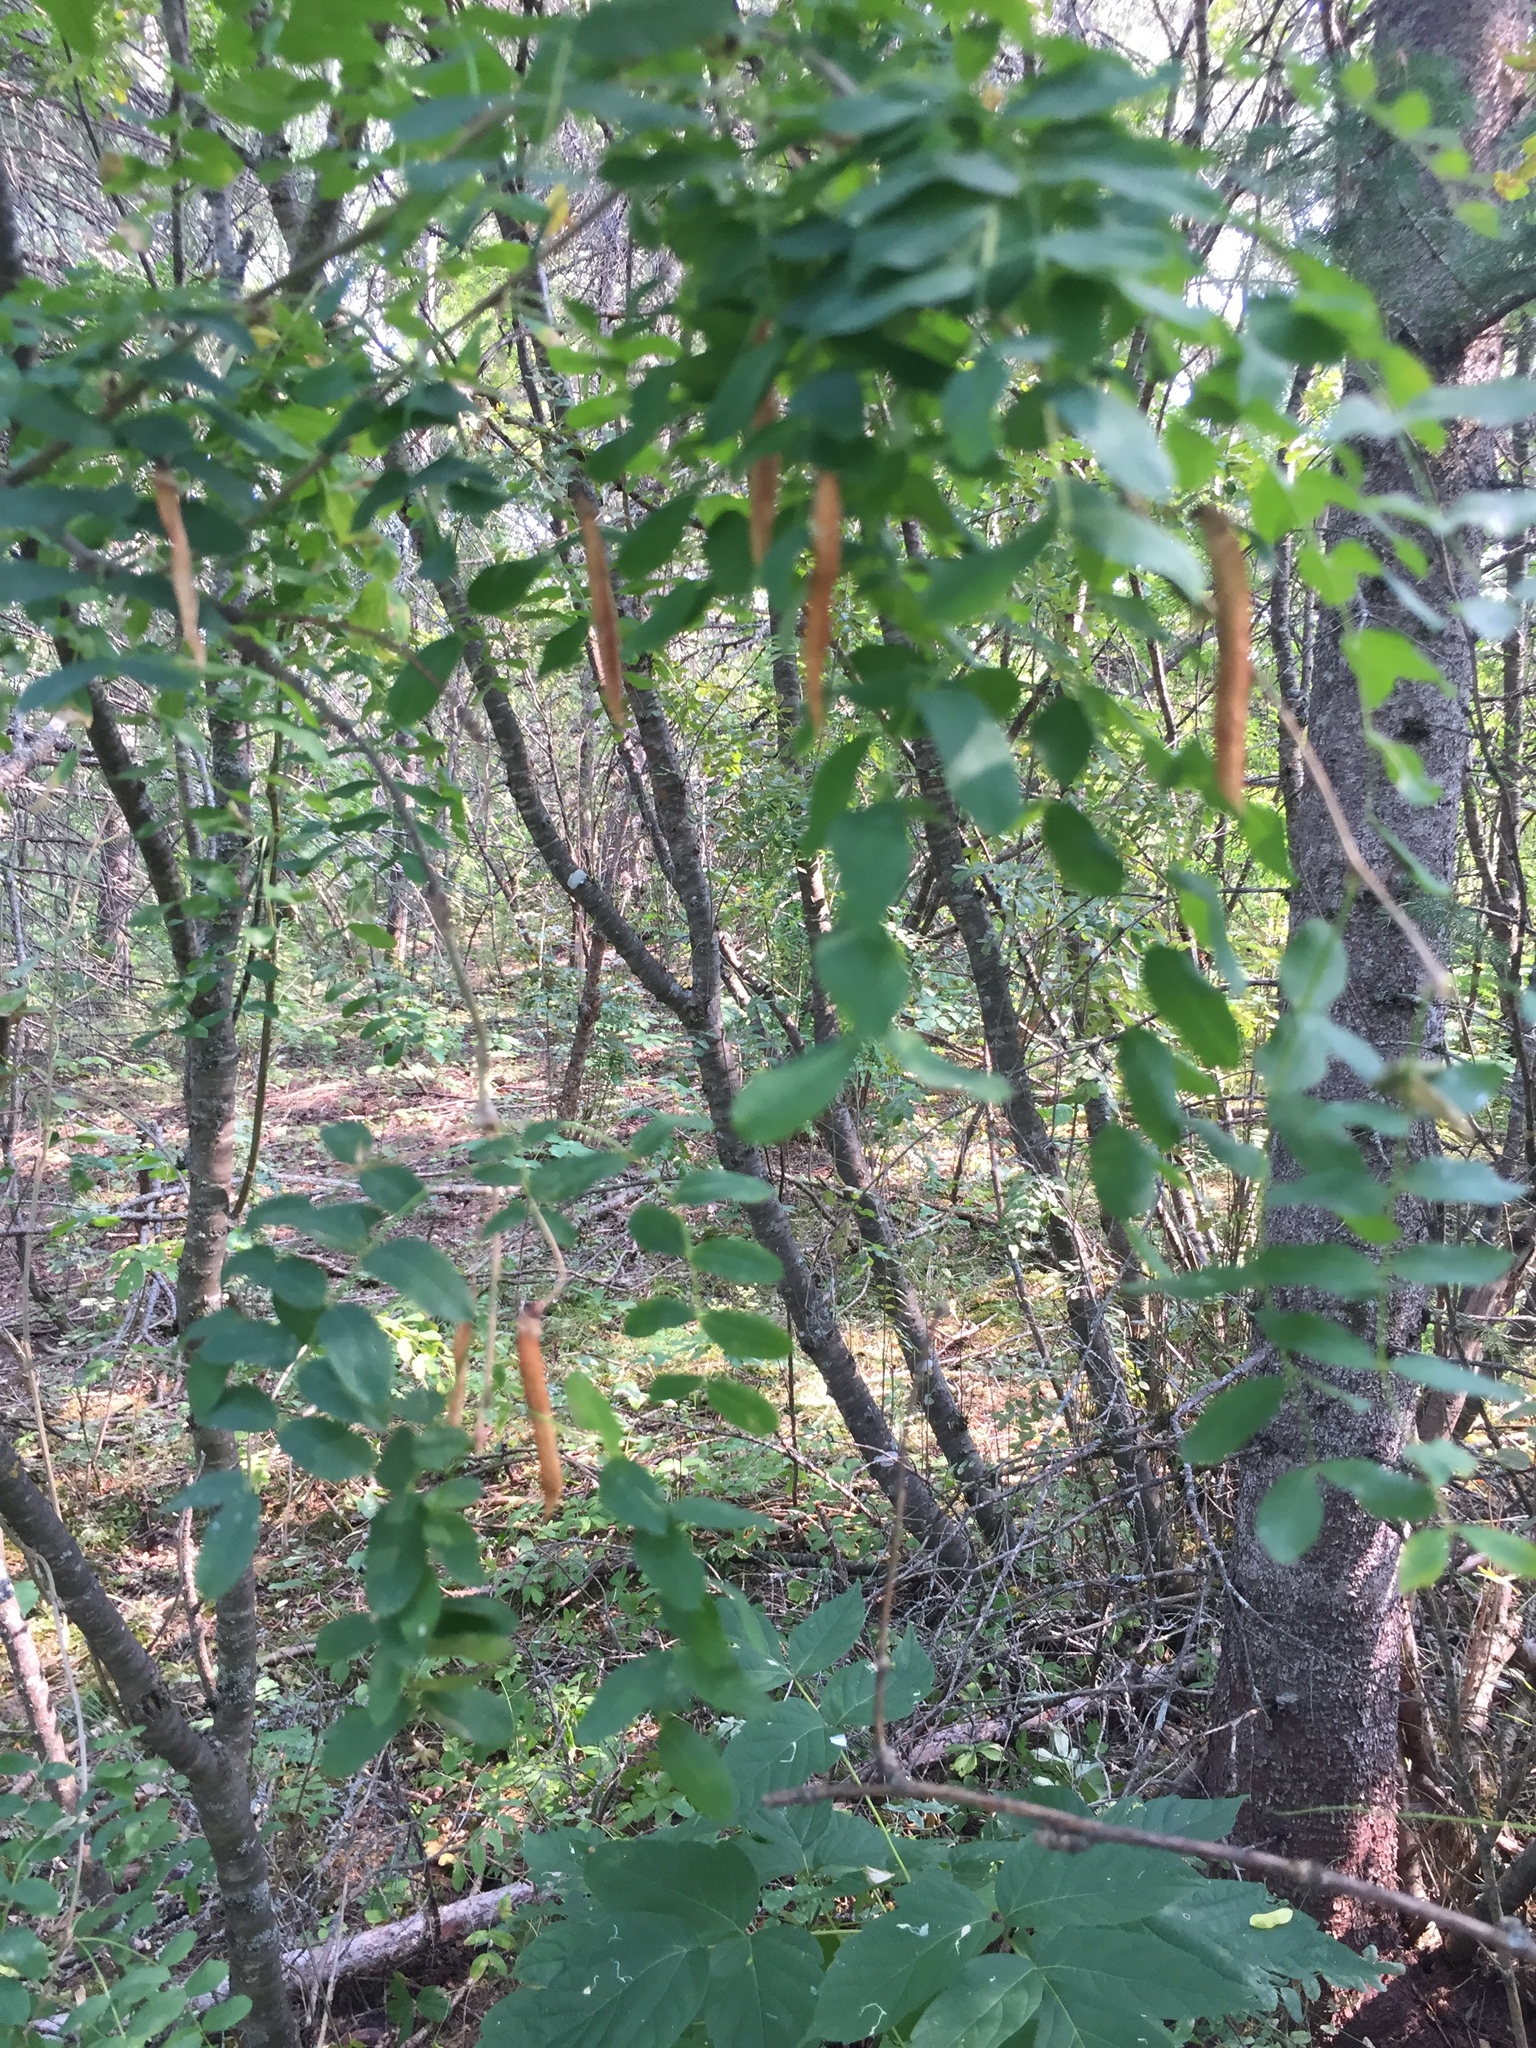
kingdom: Plantae
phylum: Tracheophyta
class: Magnoliopsida
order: Fabales
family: Fabaceae
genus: Caragana
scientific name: Caragana arborescens
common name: Siberian peashrub
